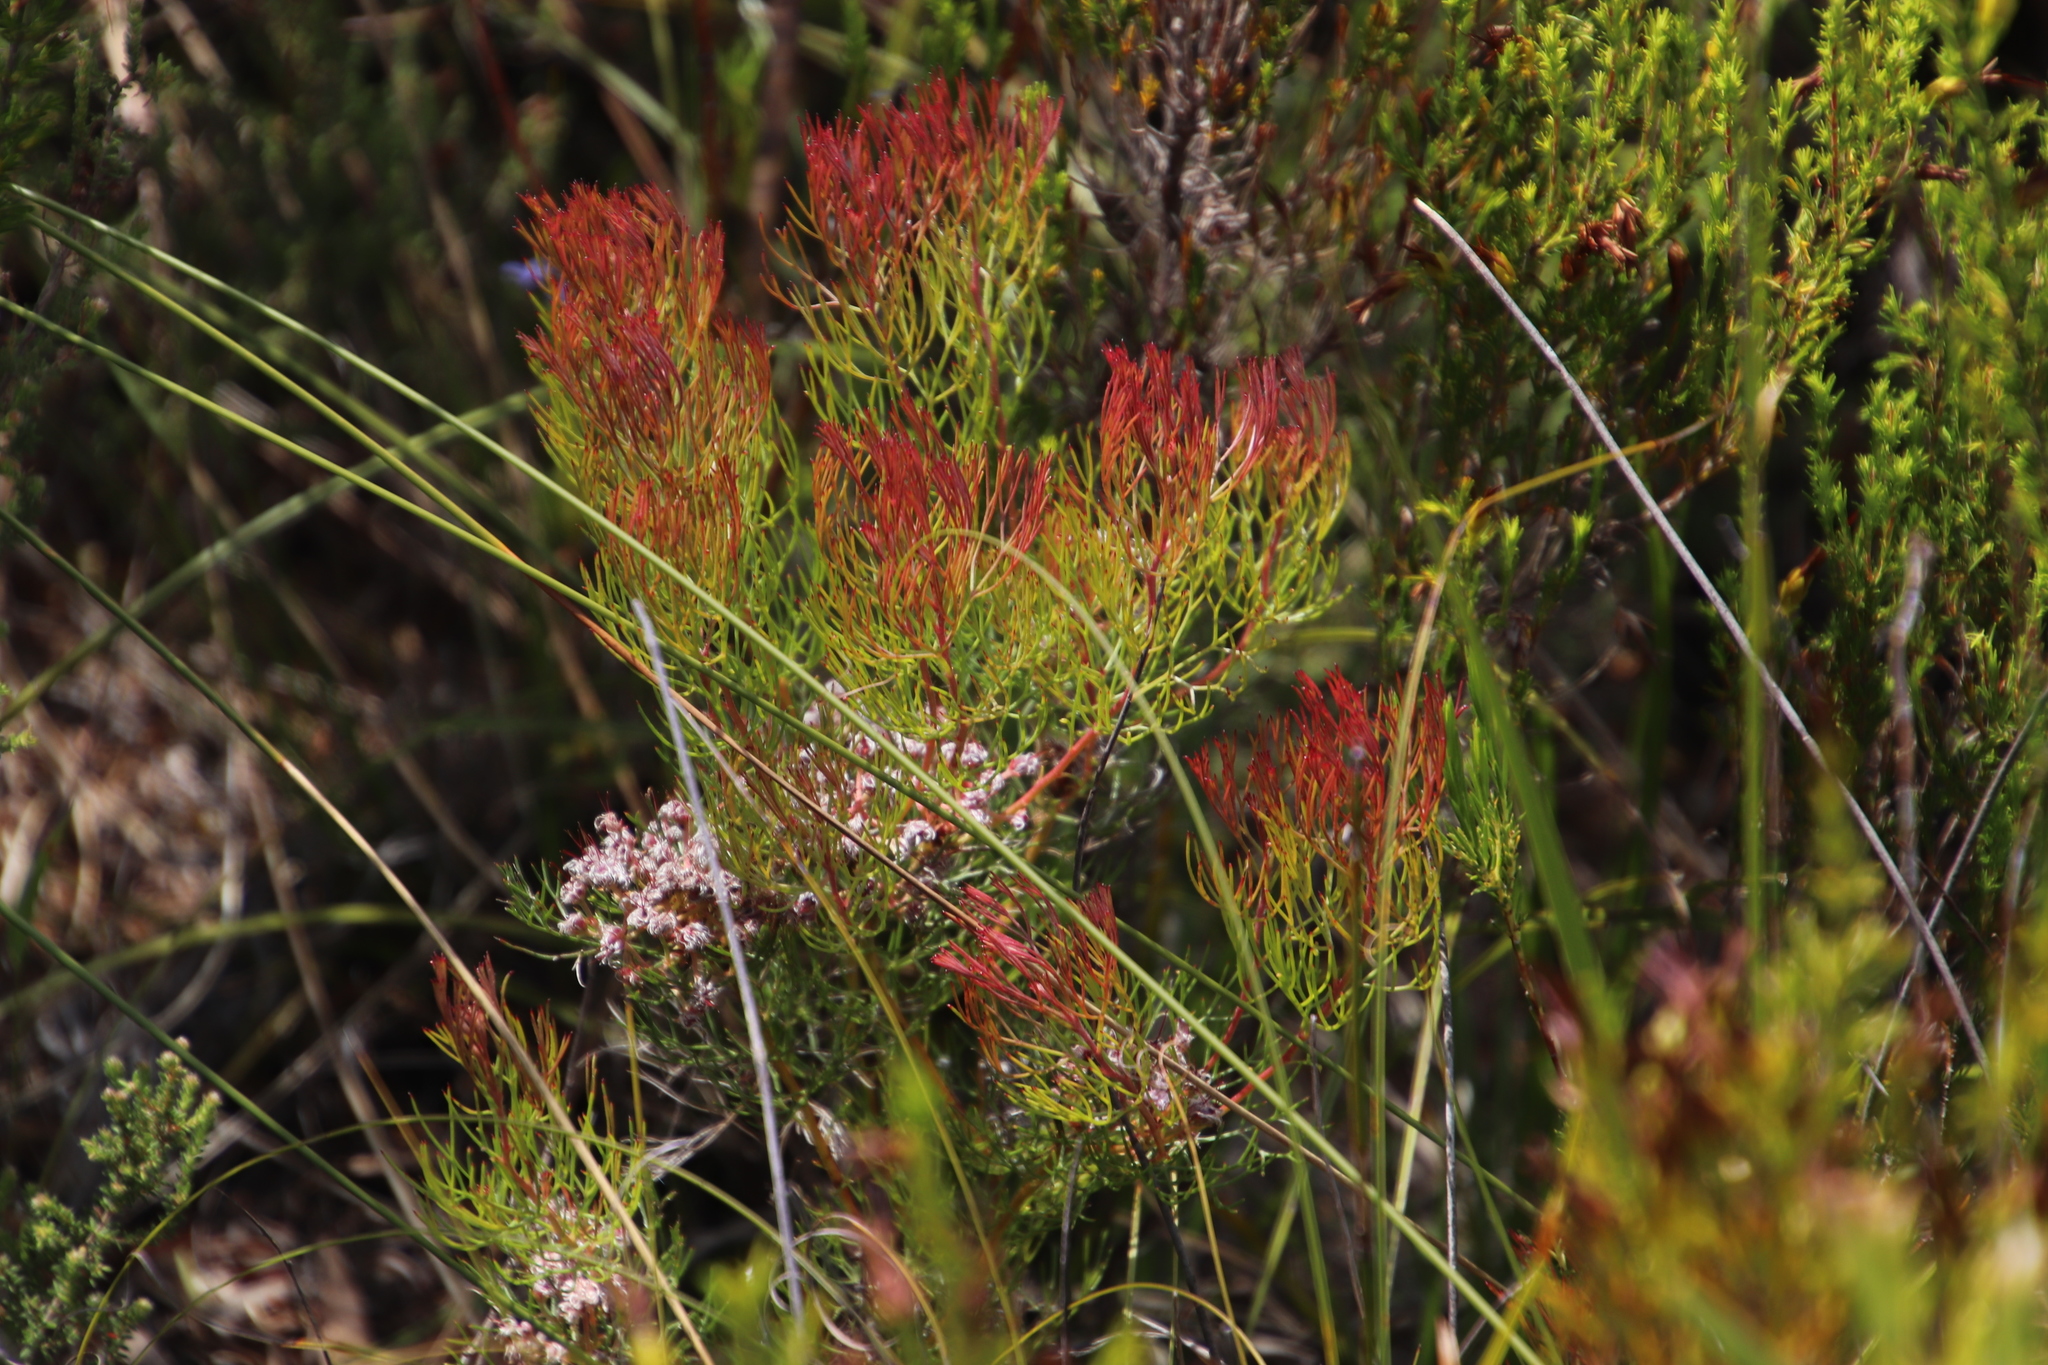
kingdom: Plantae
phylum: Tracheophyta
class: Magnoliopsida
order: Proteales
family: Proteaceae
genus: Serruria
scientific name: Serruria fasciflora
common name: Common pin spiderhead
